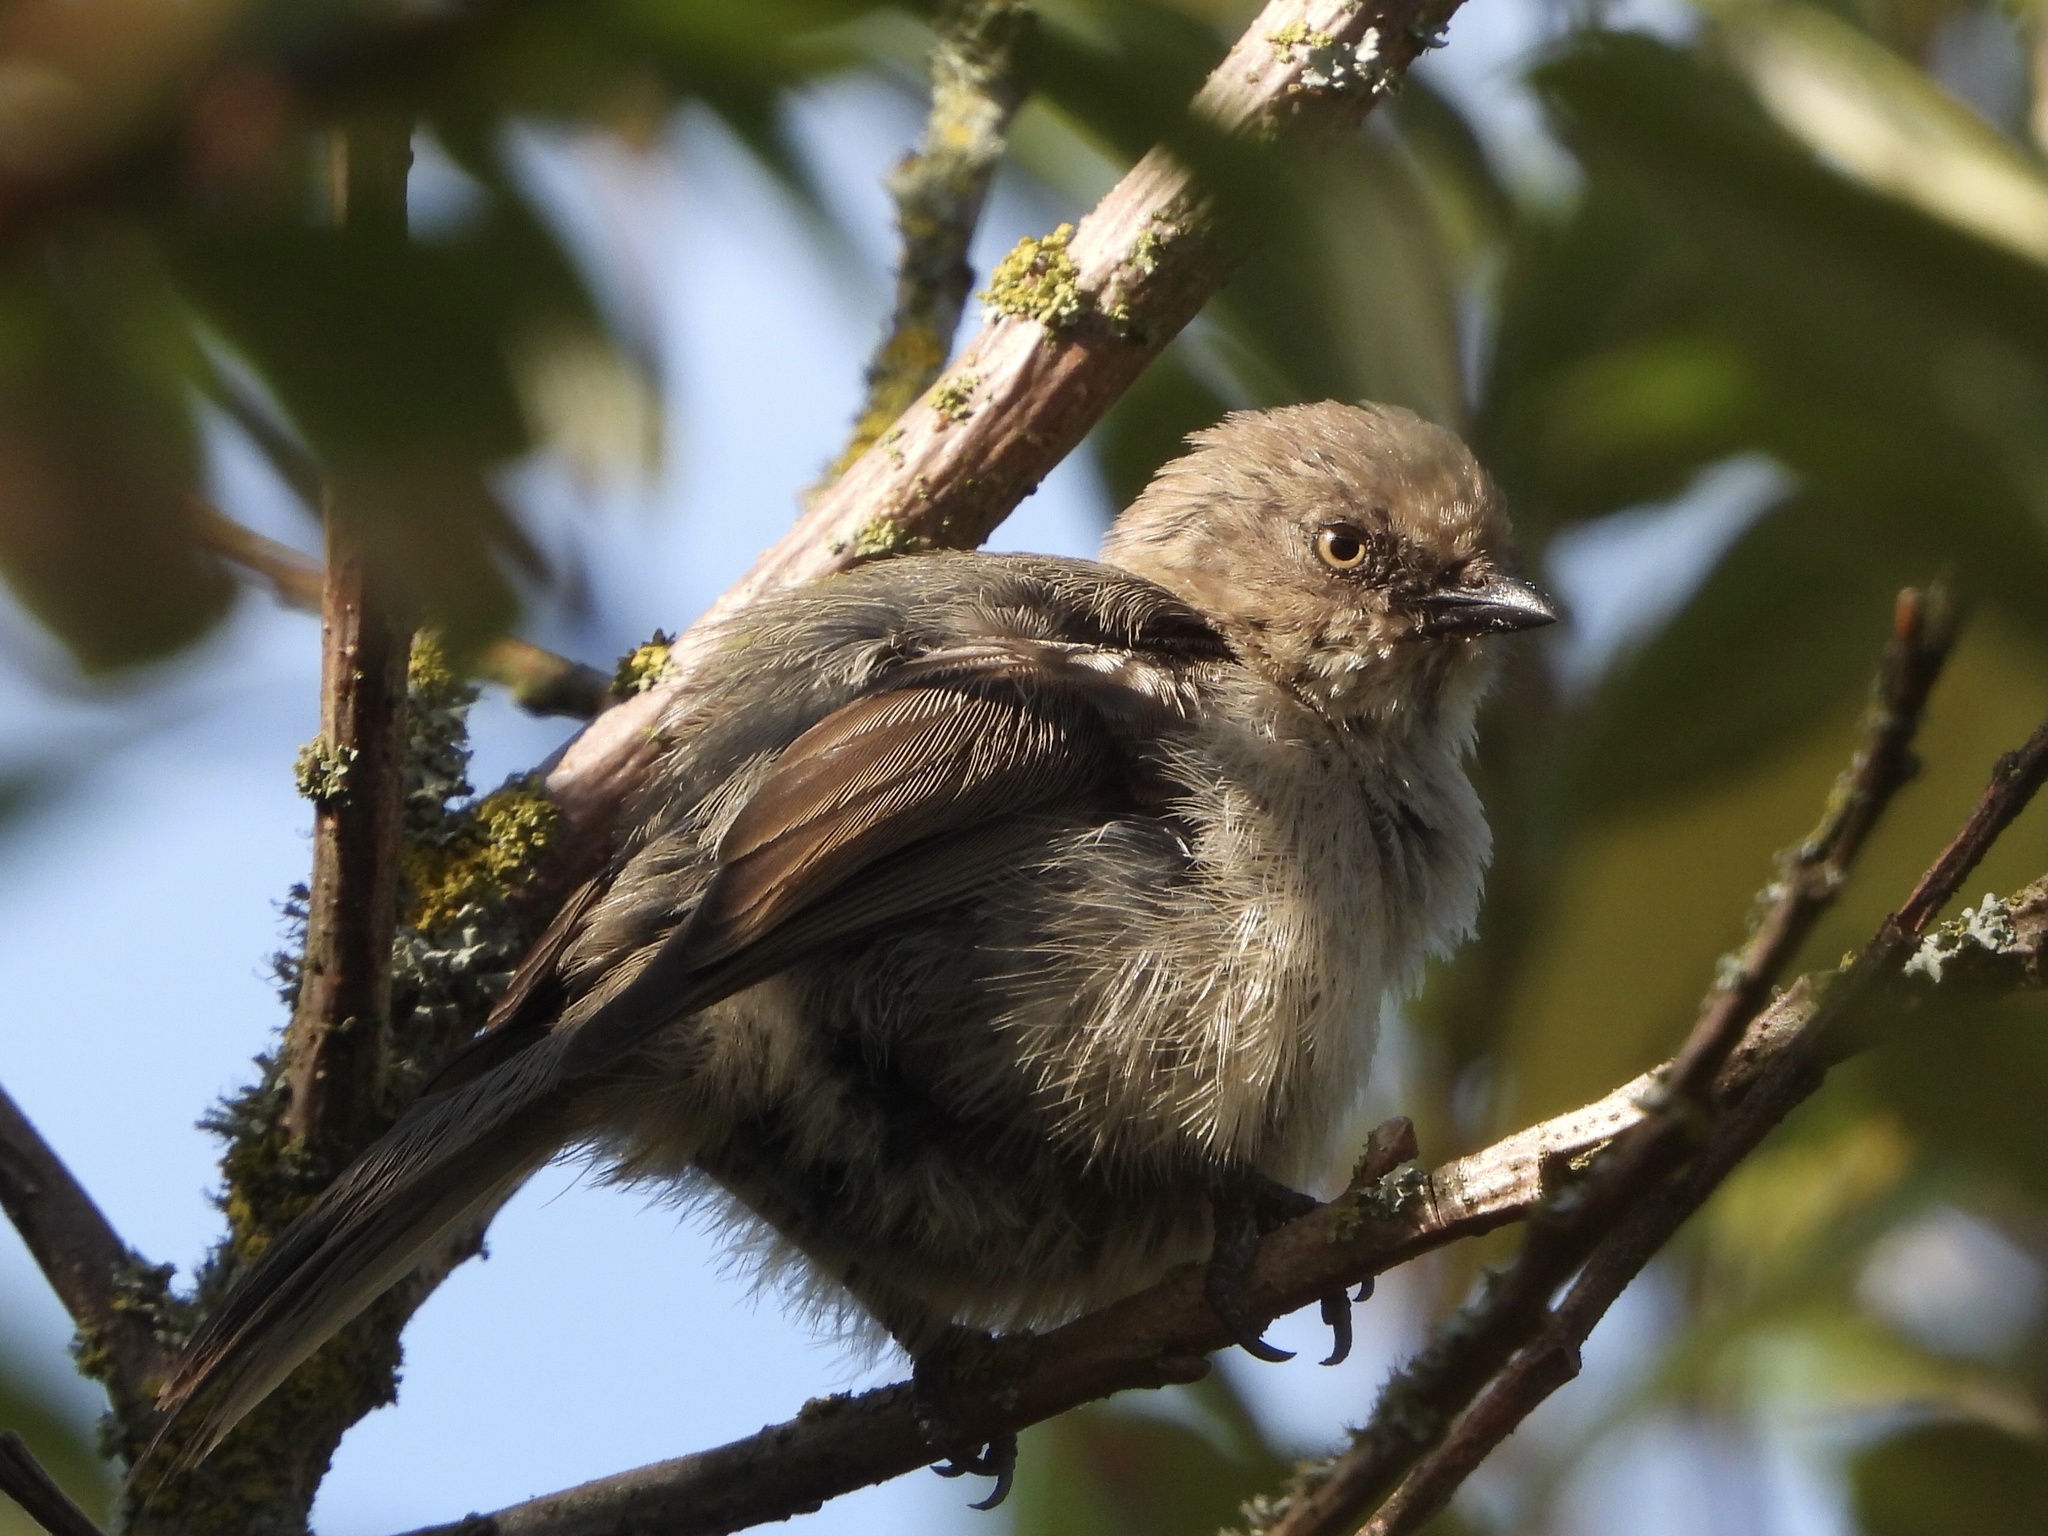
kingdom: Animalia
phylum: Chordata
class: Aves
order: Passeriformes
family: Aegithalidae
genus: Psaltriparus
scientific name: Psaltriparus minimus
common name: American bushtit
